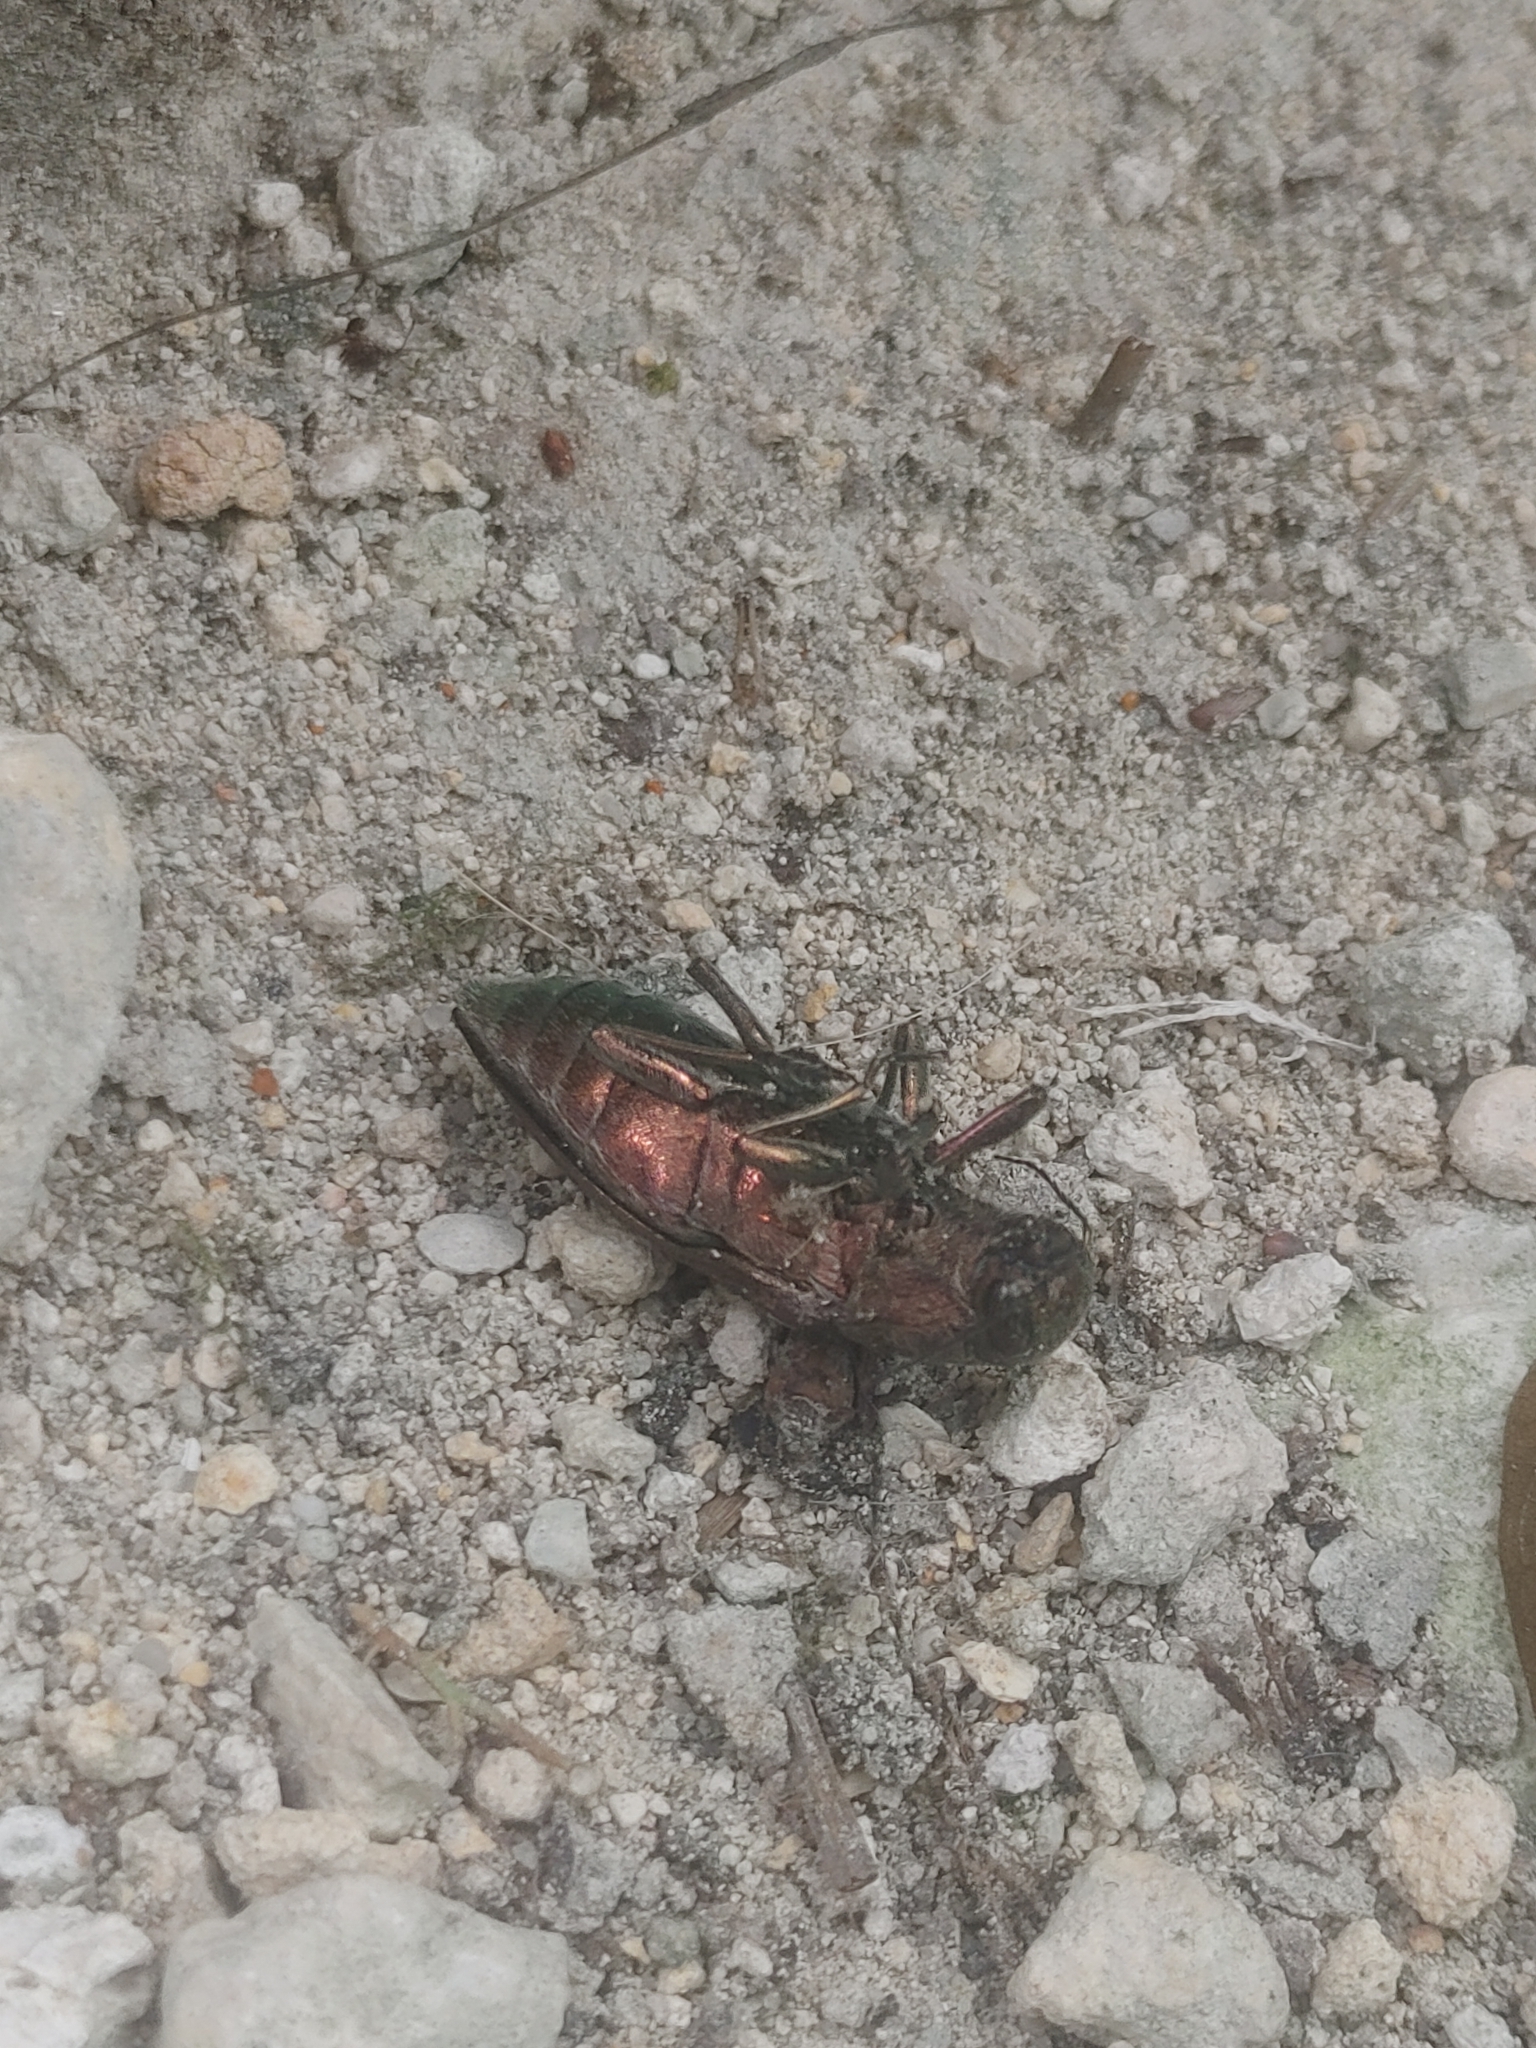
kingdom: Animalia
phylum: Arthropoda
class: Insecta
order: Coleoptera
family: Buprestidae
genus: Buprestis
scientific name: Buprestis apricans
